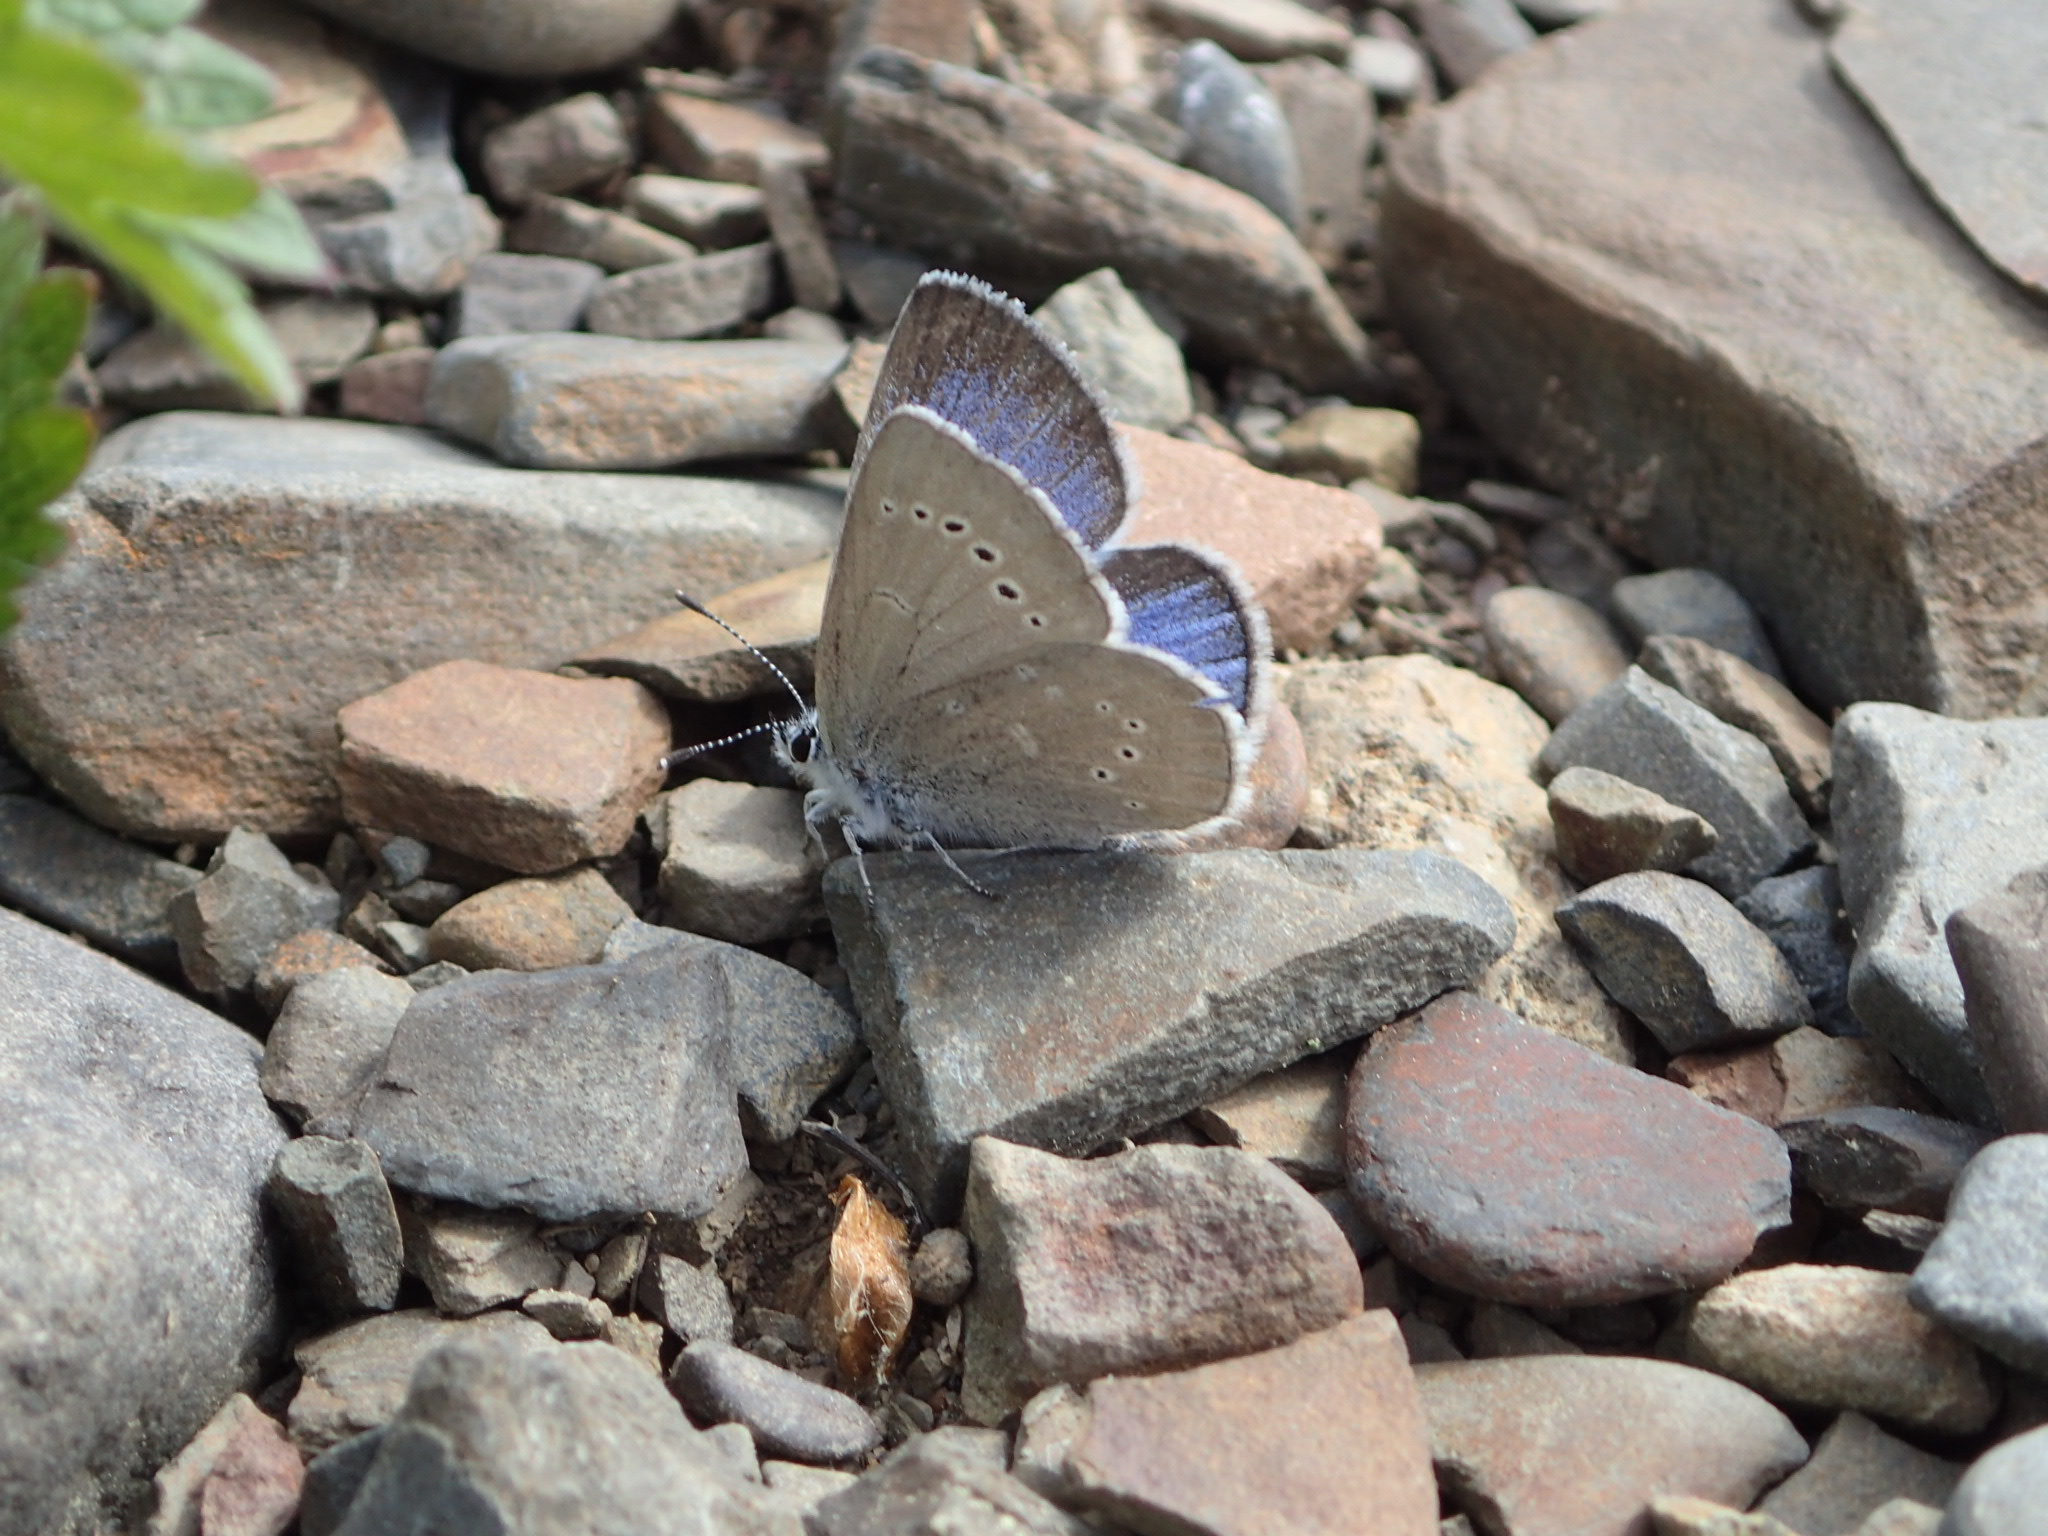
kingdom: Animalia
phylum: Arthropoda
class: Insecta
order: Lepidoptera
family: Lycaenidae
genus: Glaucopsyche
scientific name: Glaucopsyche lygdamus
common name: Silvery blue
